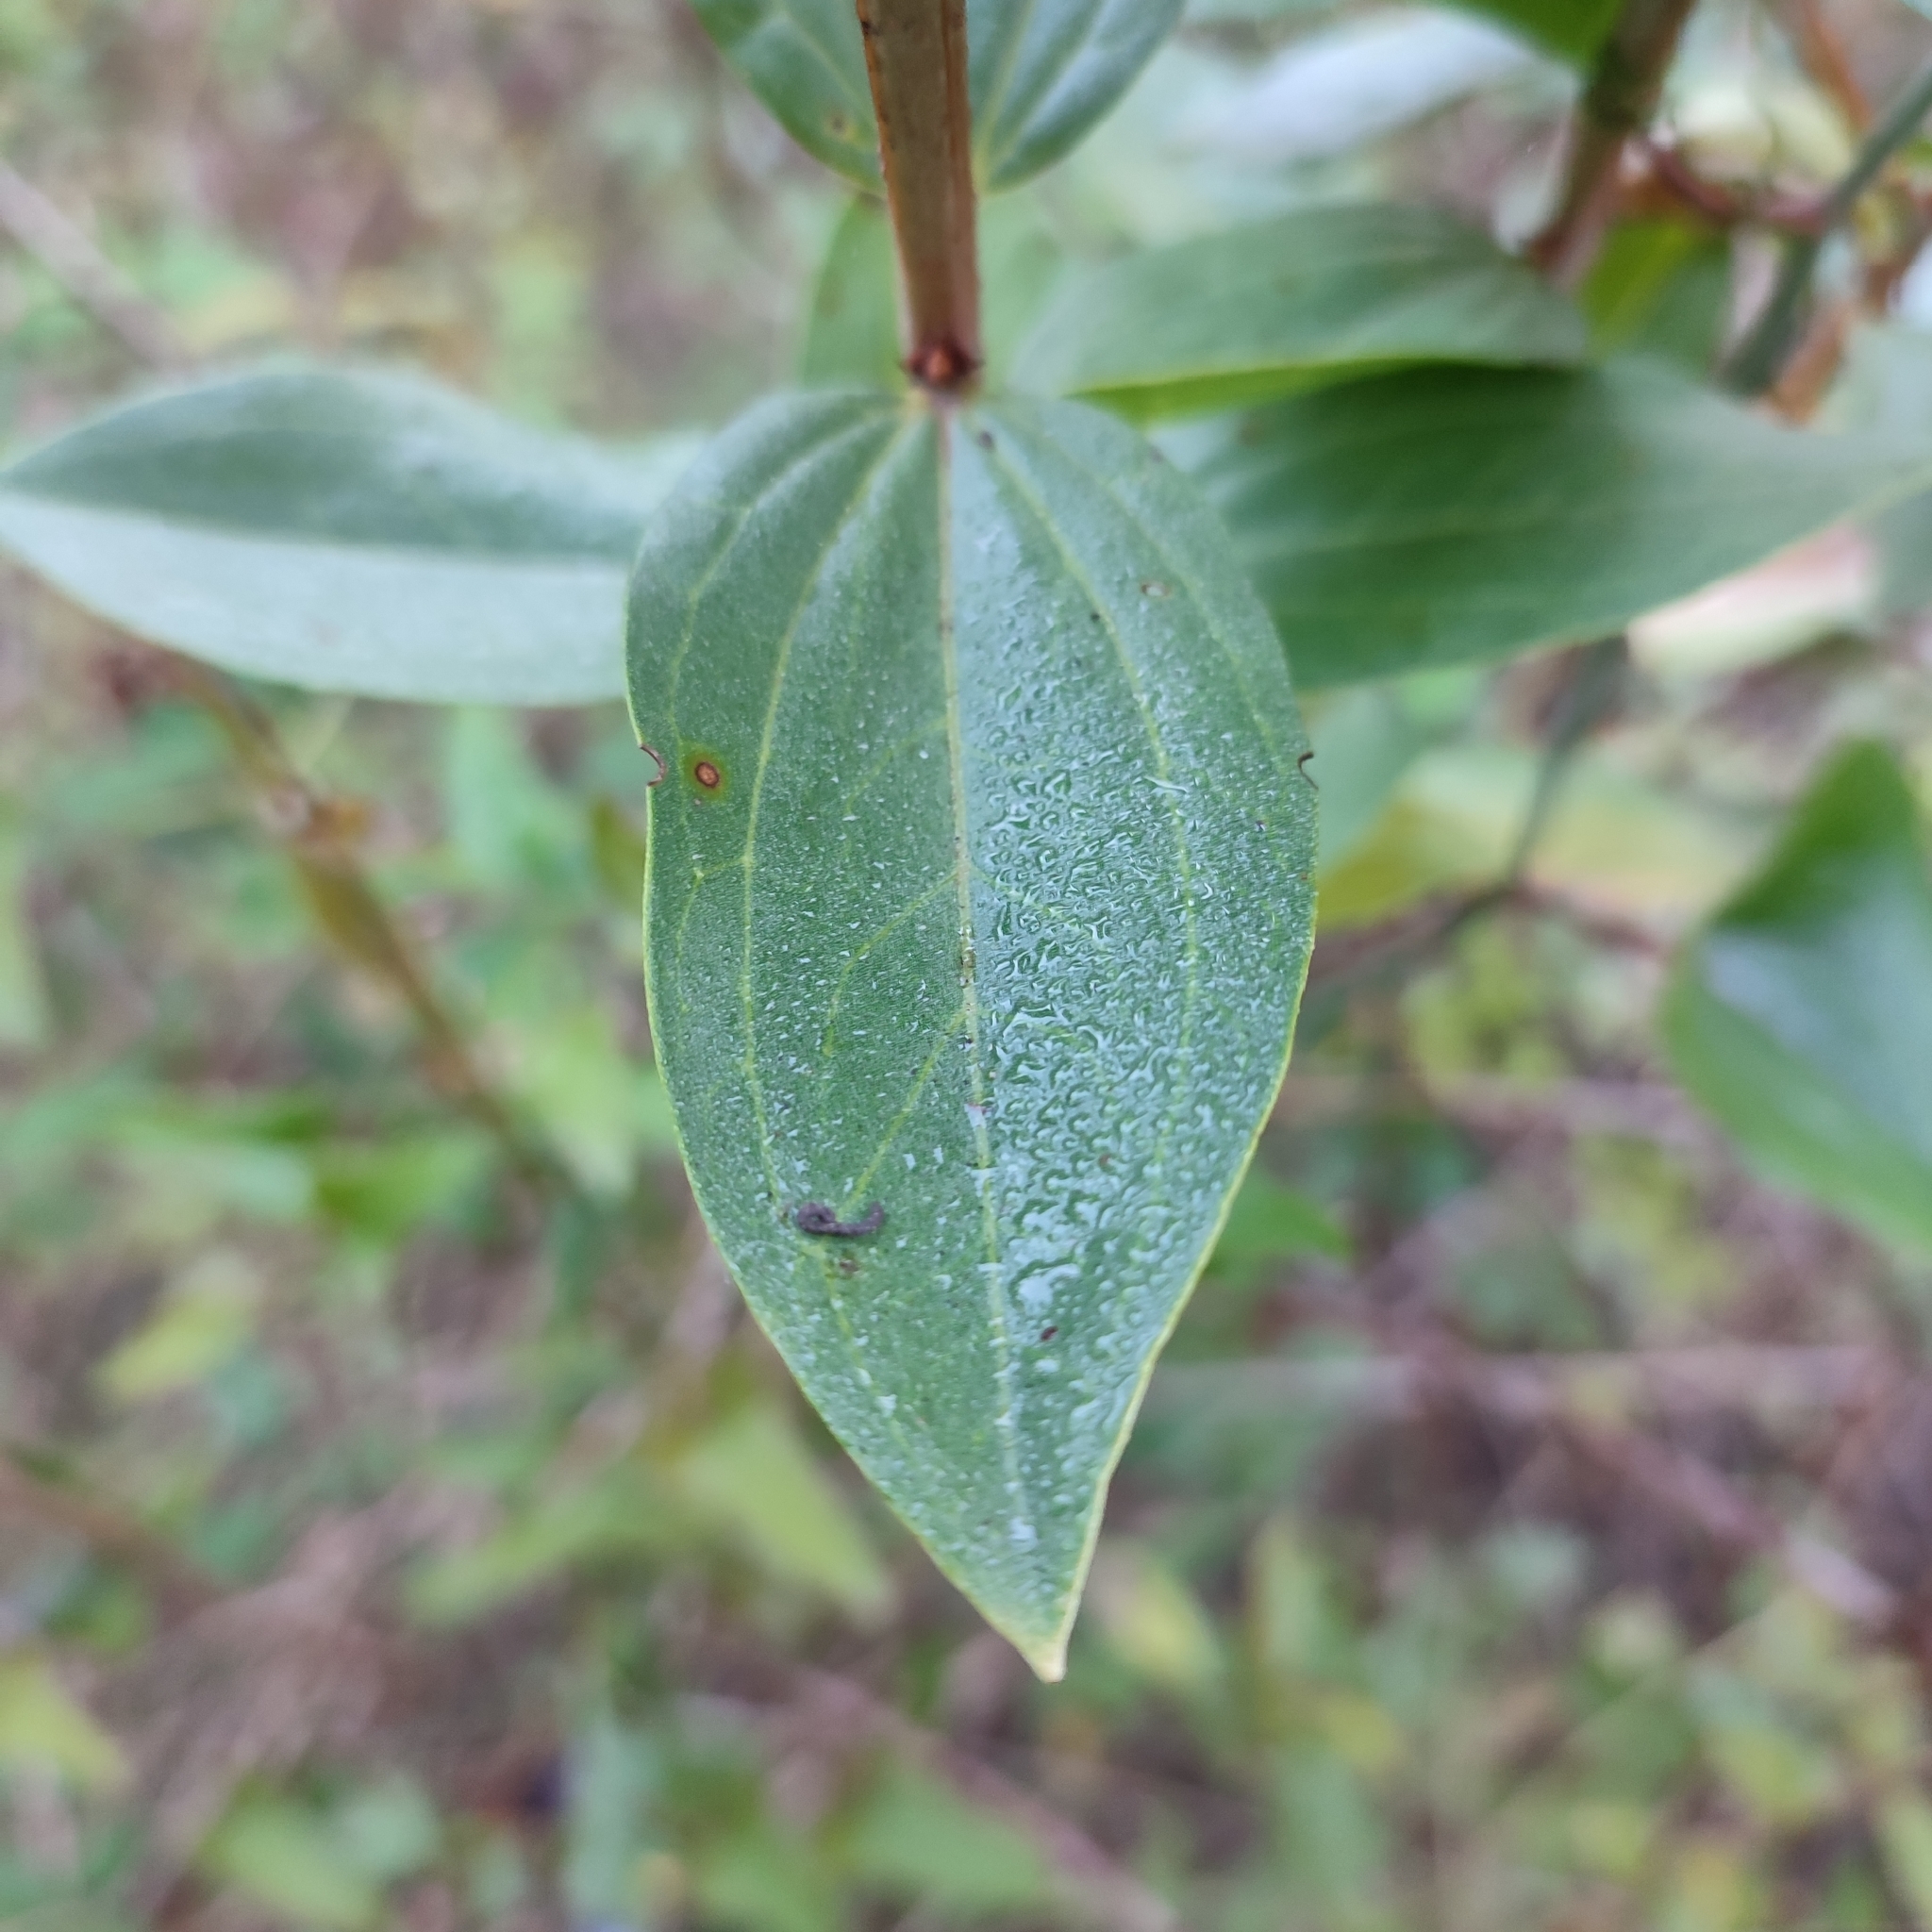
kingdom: Plantae
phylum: Tracheophyta
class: Magnoliopsida
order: Cucurbitales
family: Coriariaceae
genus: Coriaria
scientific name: Coriaria myrtifolia
